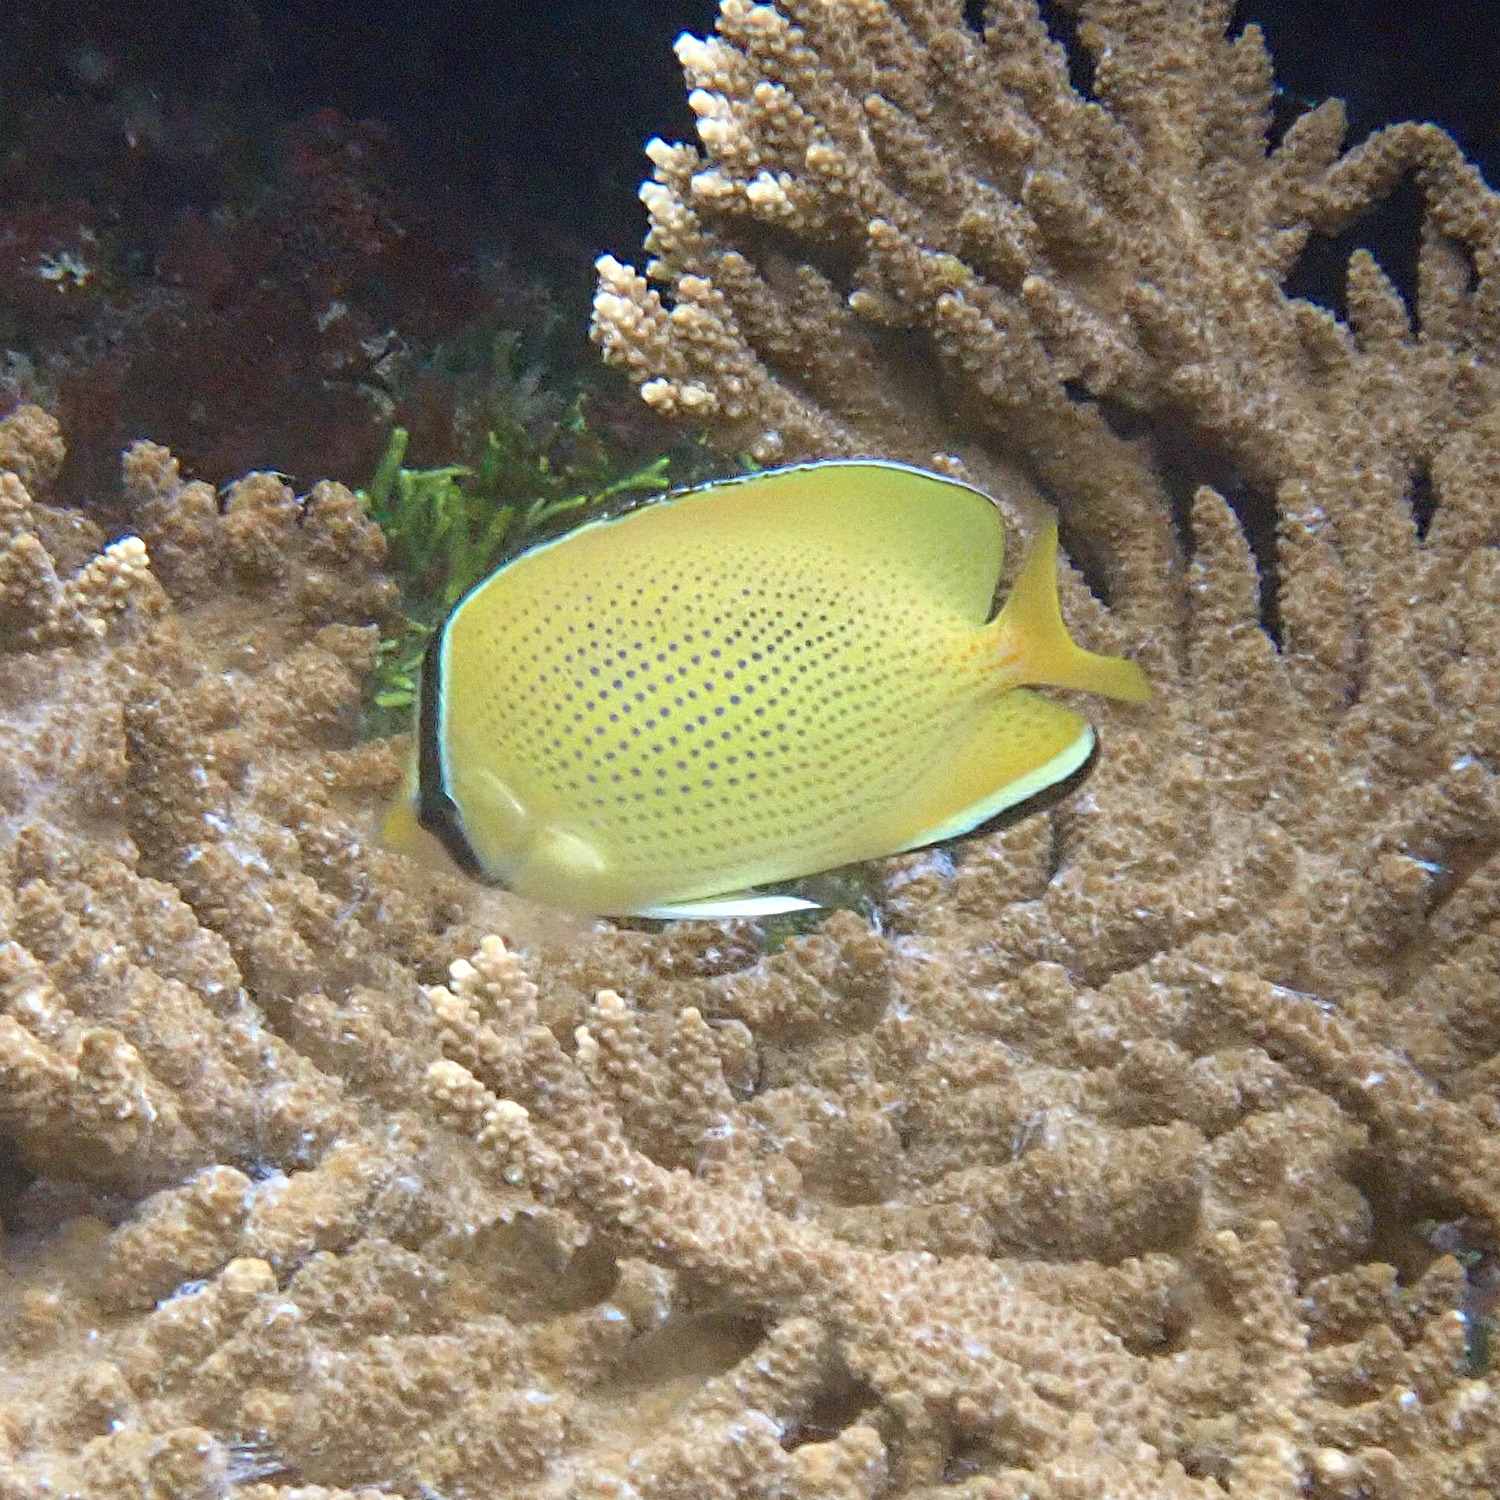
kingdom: Animalia
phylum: Chordata
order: Perciformes
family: Chaetodontidae
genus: Chaetodon
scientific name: Chaetodon citrinellus
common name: Speckled butterflyfish
